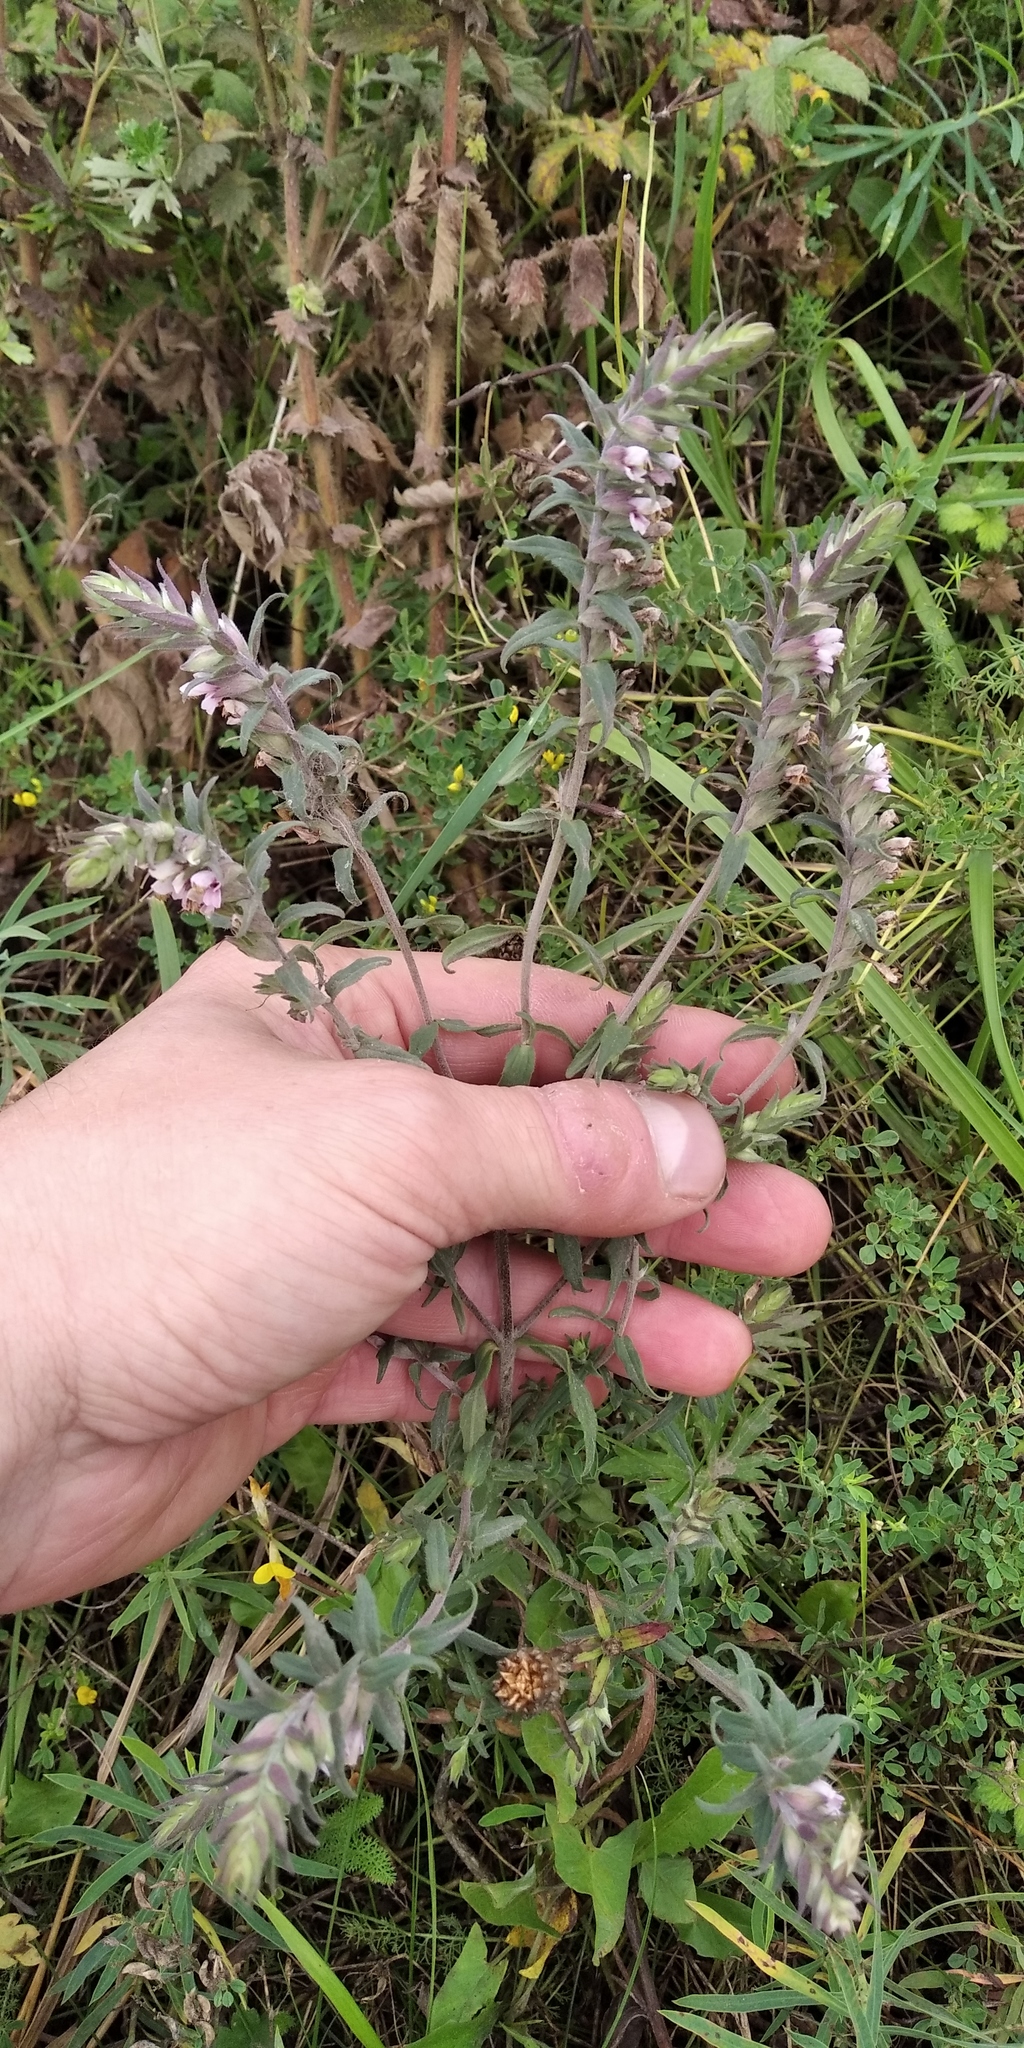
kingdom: Plantae
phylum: Tracheophyta
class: Magnoliopsida
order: Lamiales
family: Orobanchaceae
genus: Odontites
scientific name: Odontites vulgaris
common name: Broomrape
